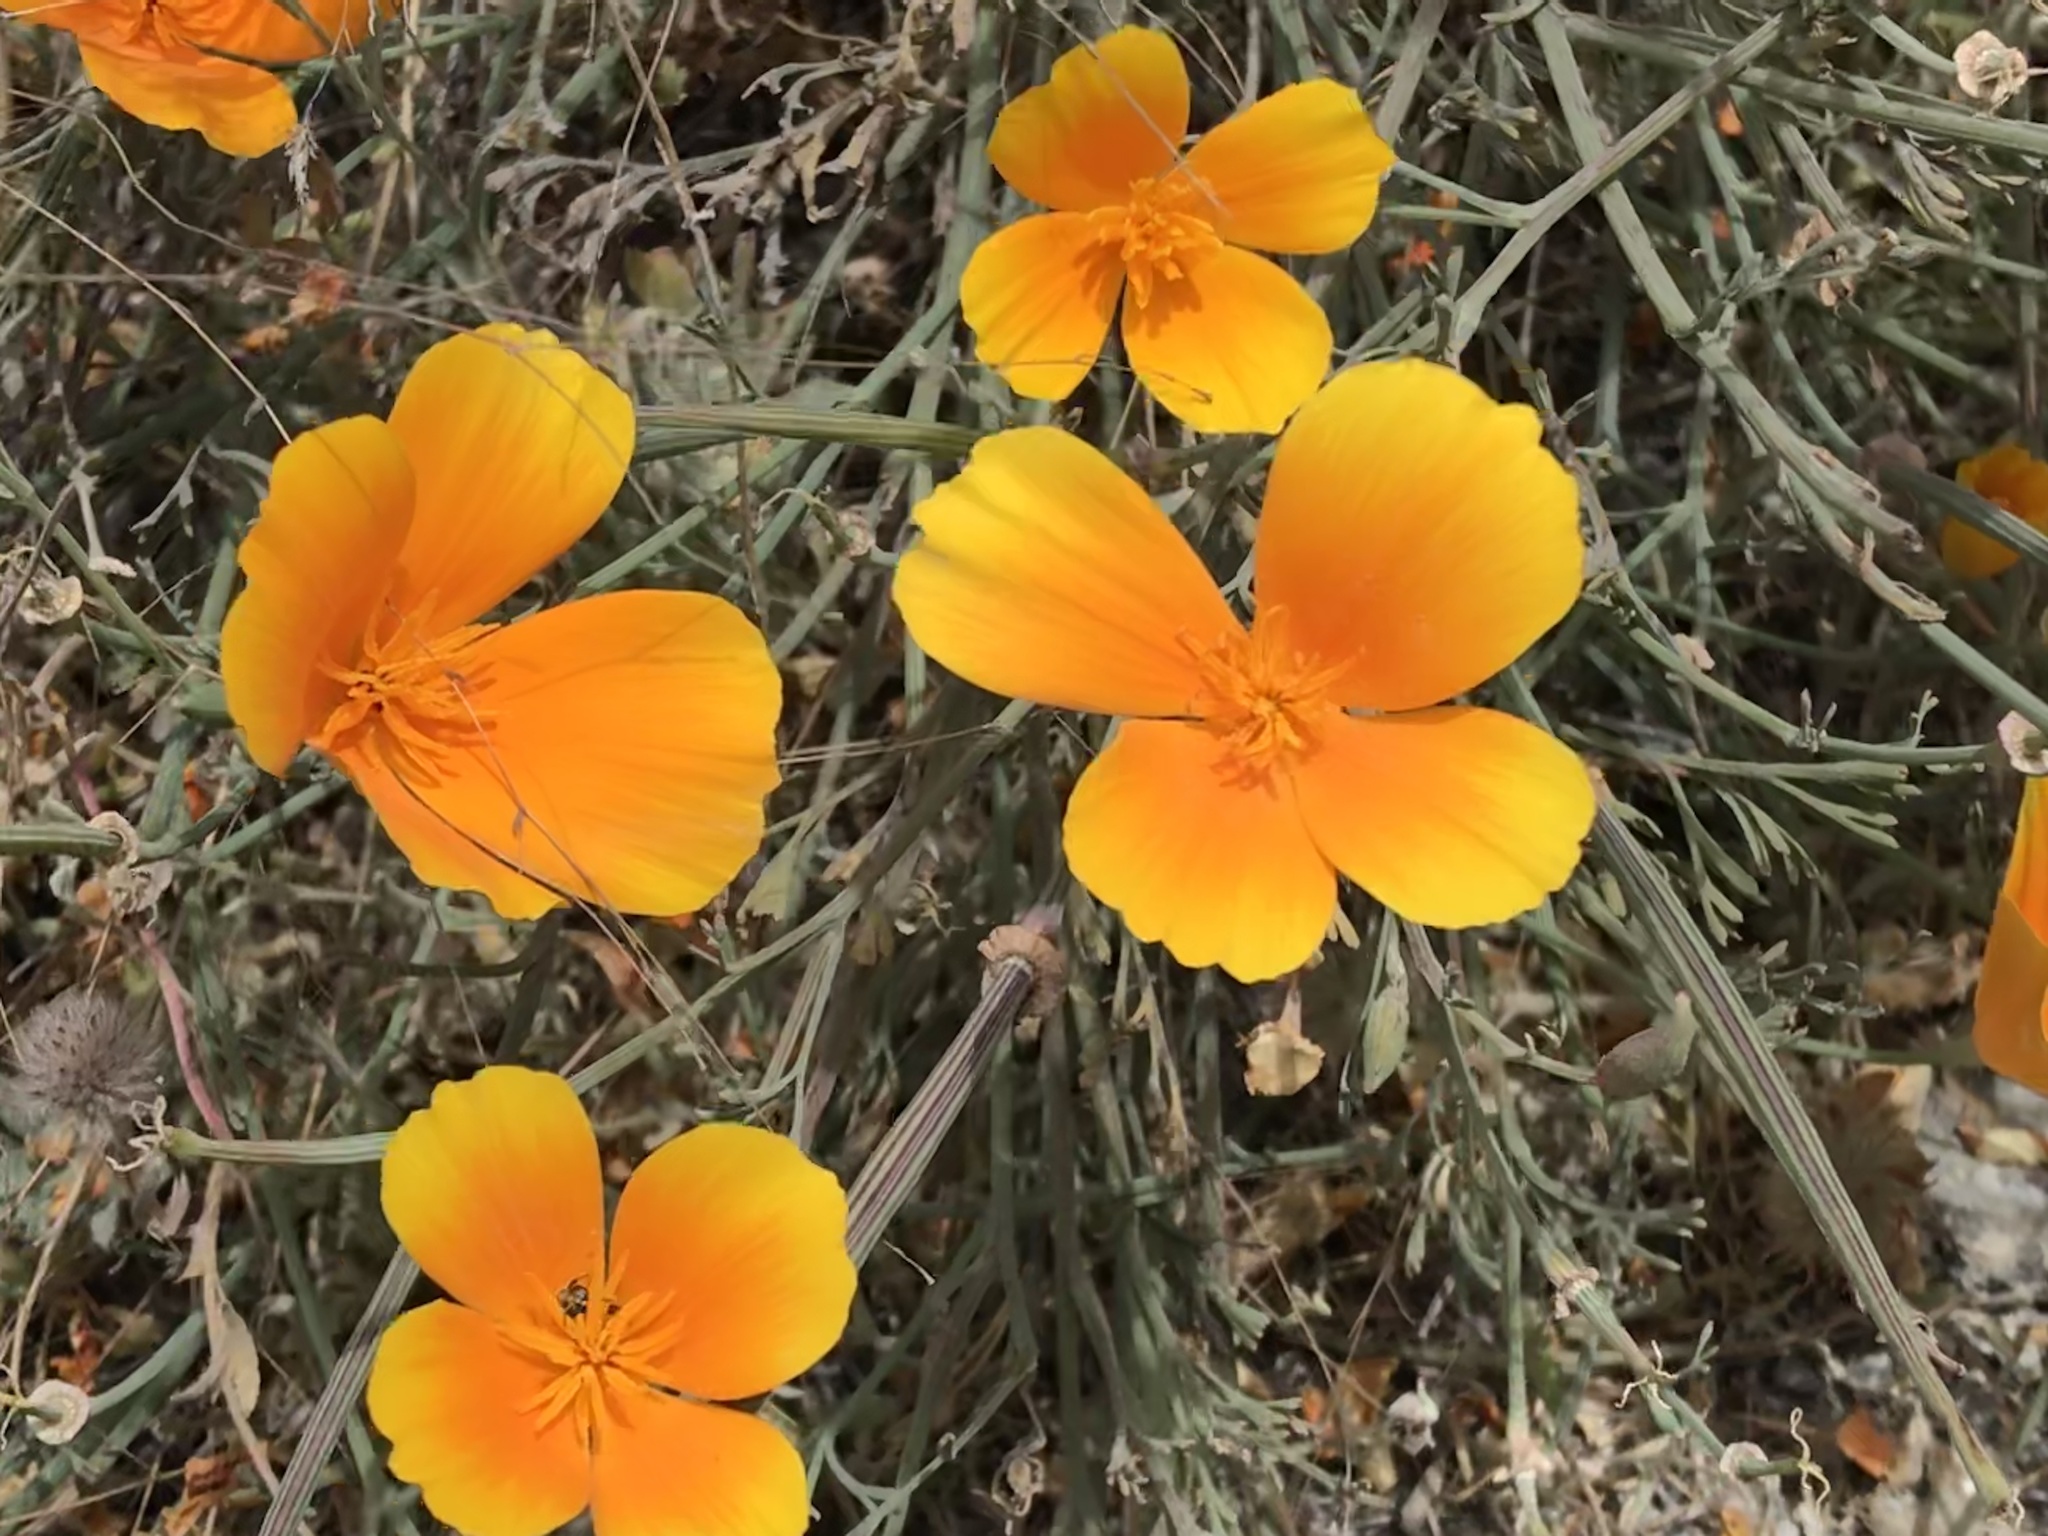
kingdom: Plantae
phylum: Tracheophyta
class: Magnoliopsida
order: Ranunculales
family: Papaveraceae
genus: Eschscholzia
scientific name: Eschscholzia californica
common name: California poppy
